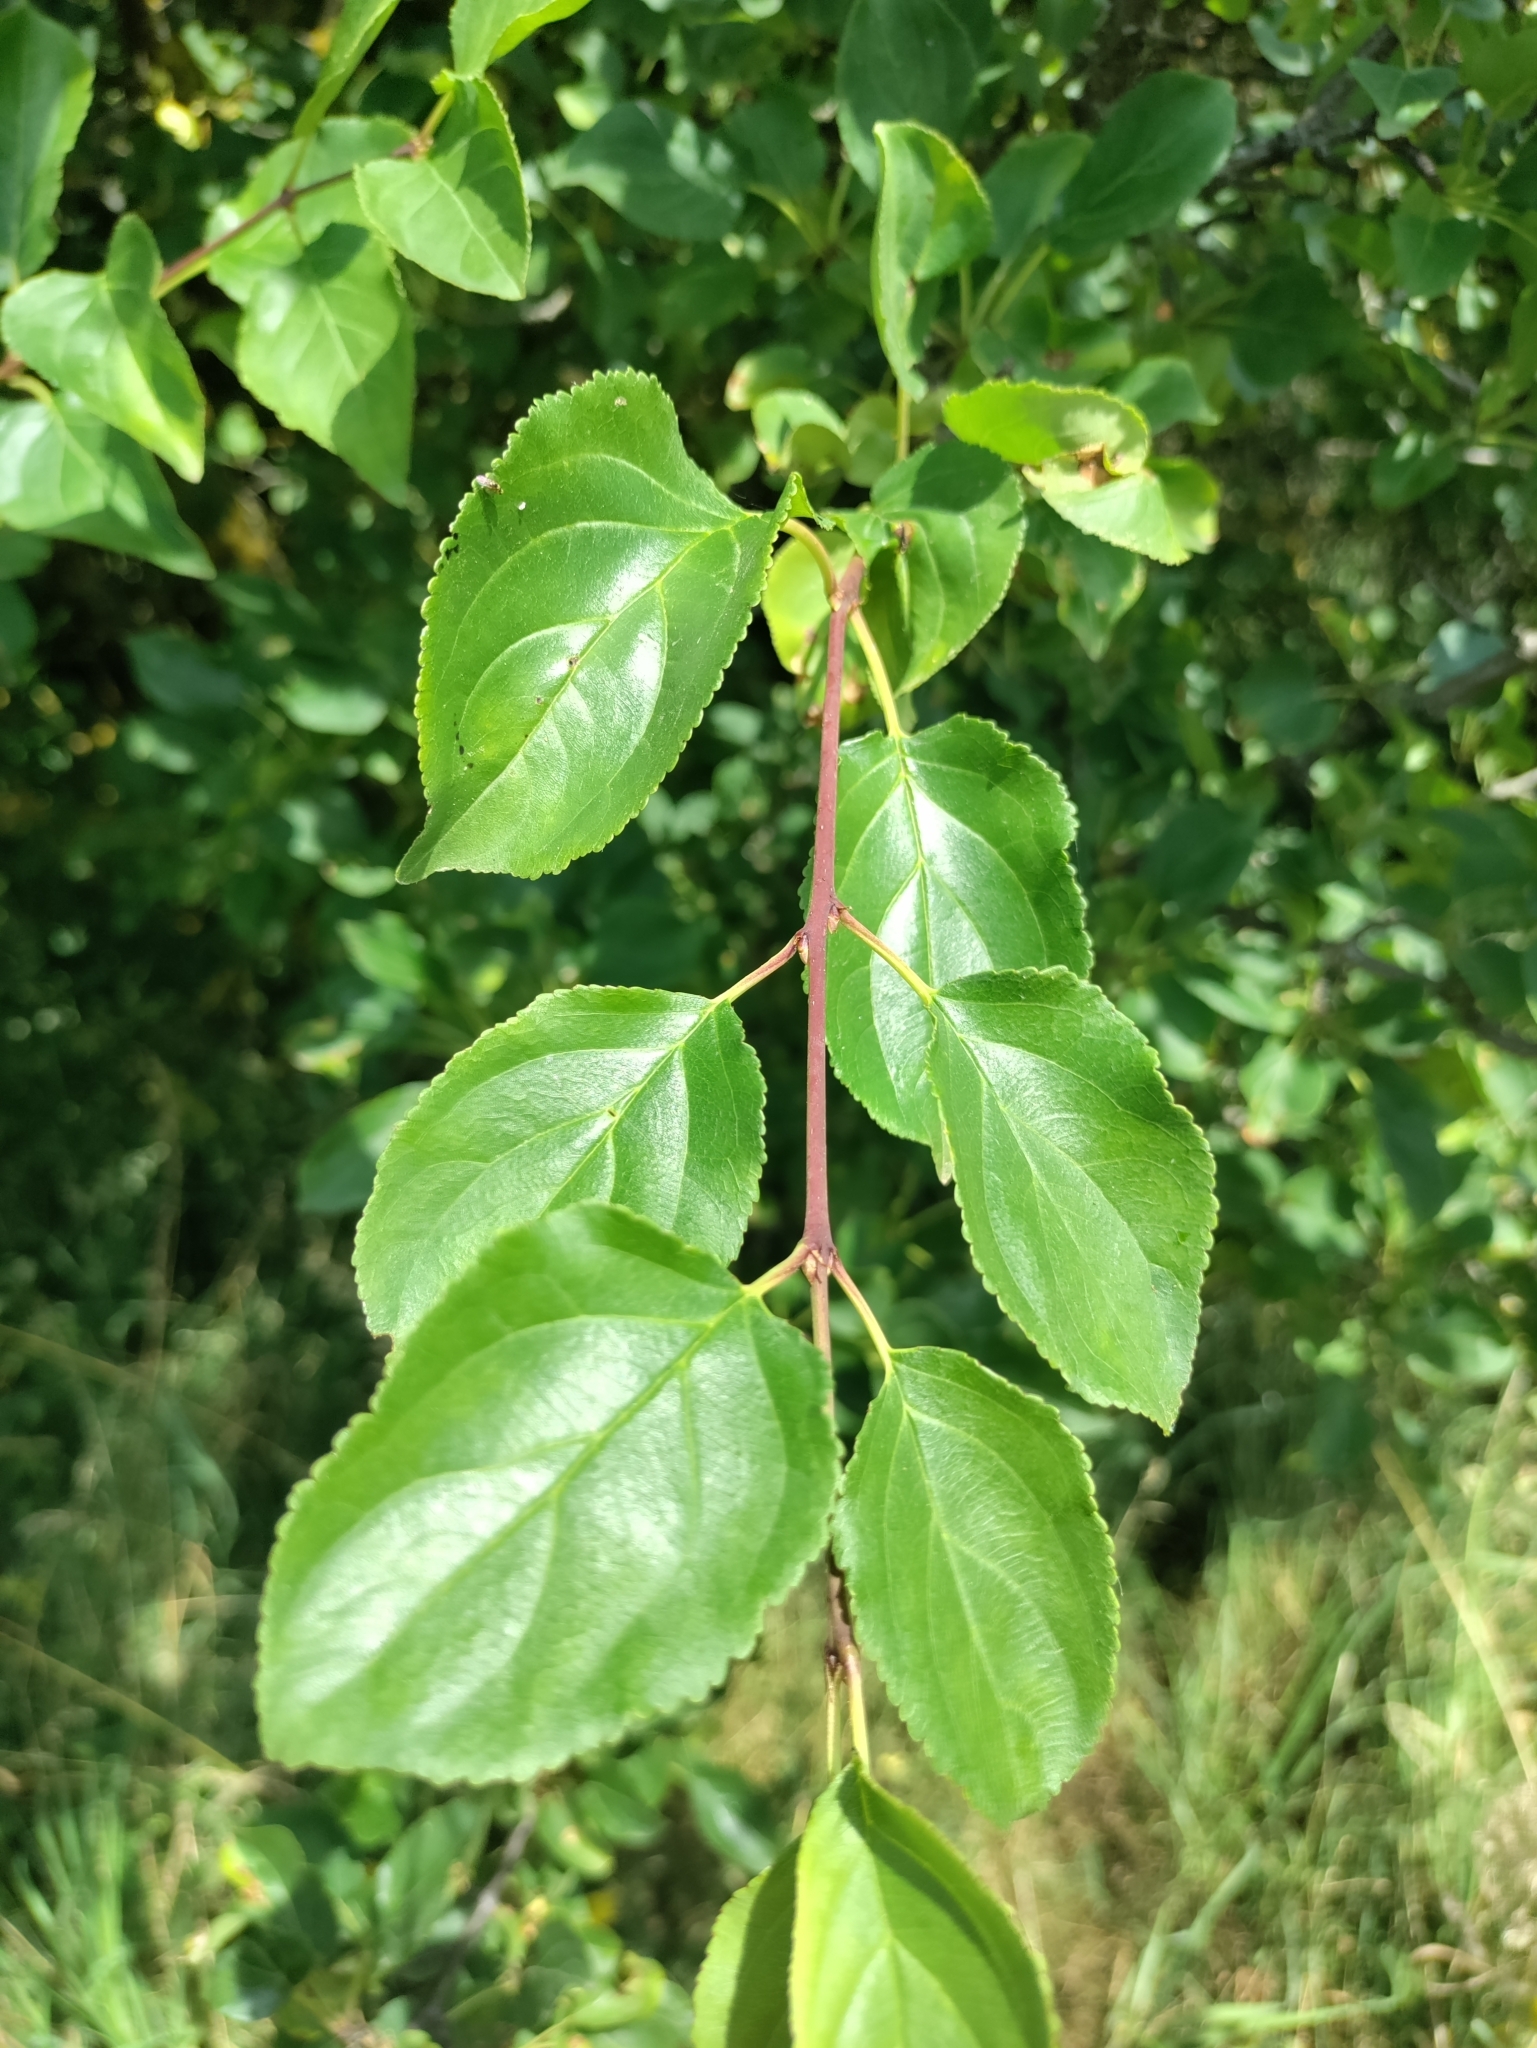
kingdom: Plantae
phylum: Tracheophyta
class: Magnoliopsida
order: Rosales
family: Rhamnaceae
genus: Rhamnus
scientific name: Rhamnus cathartica
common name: Common buckthorn
